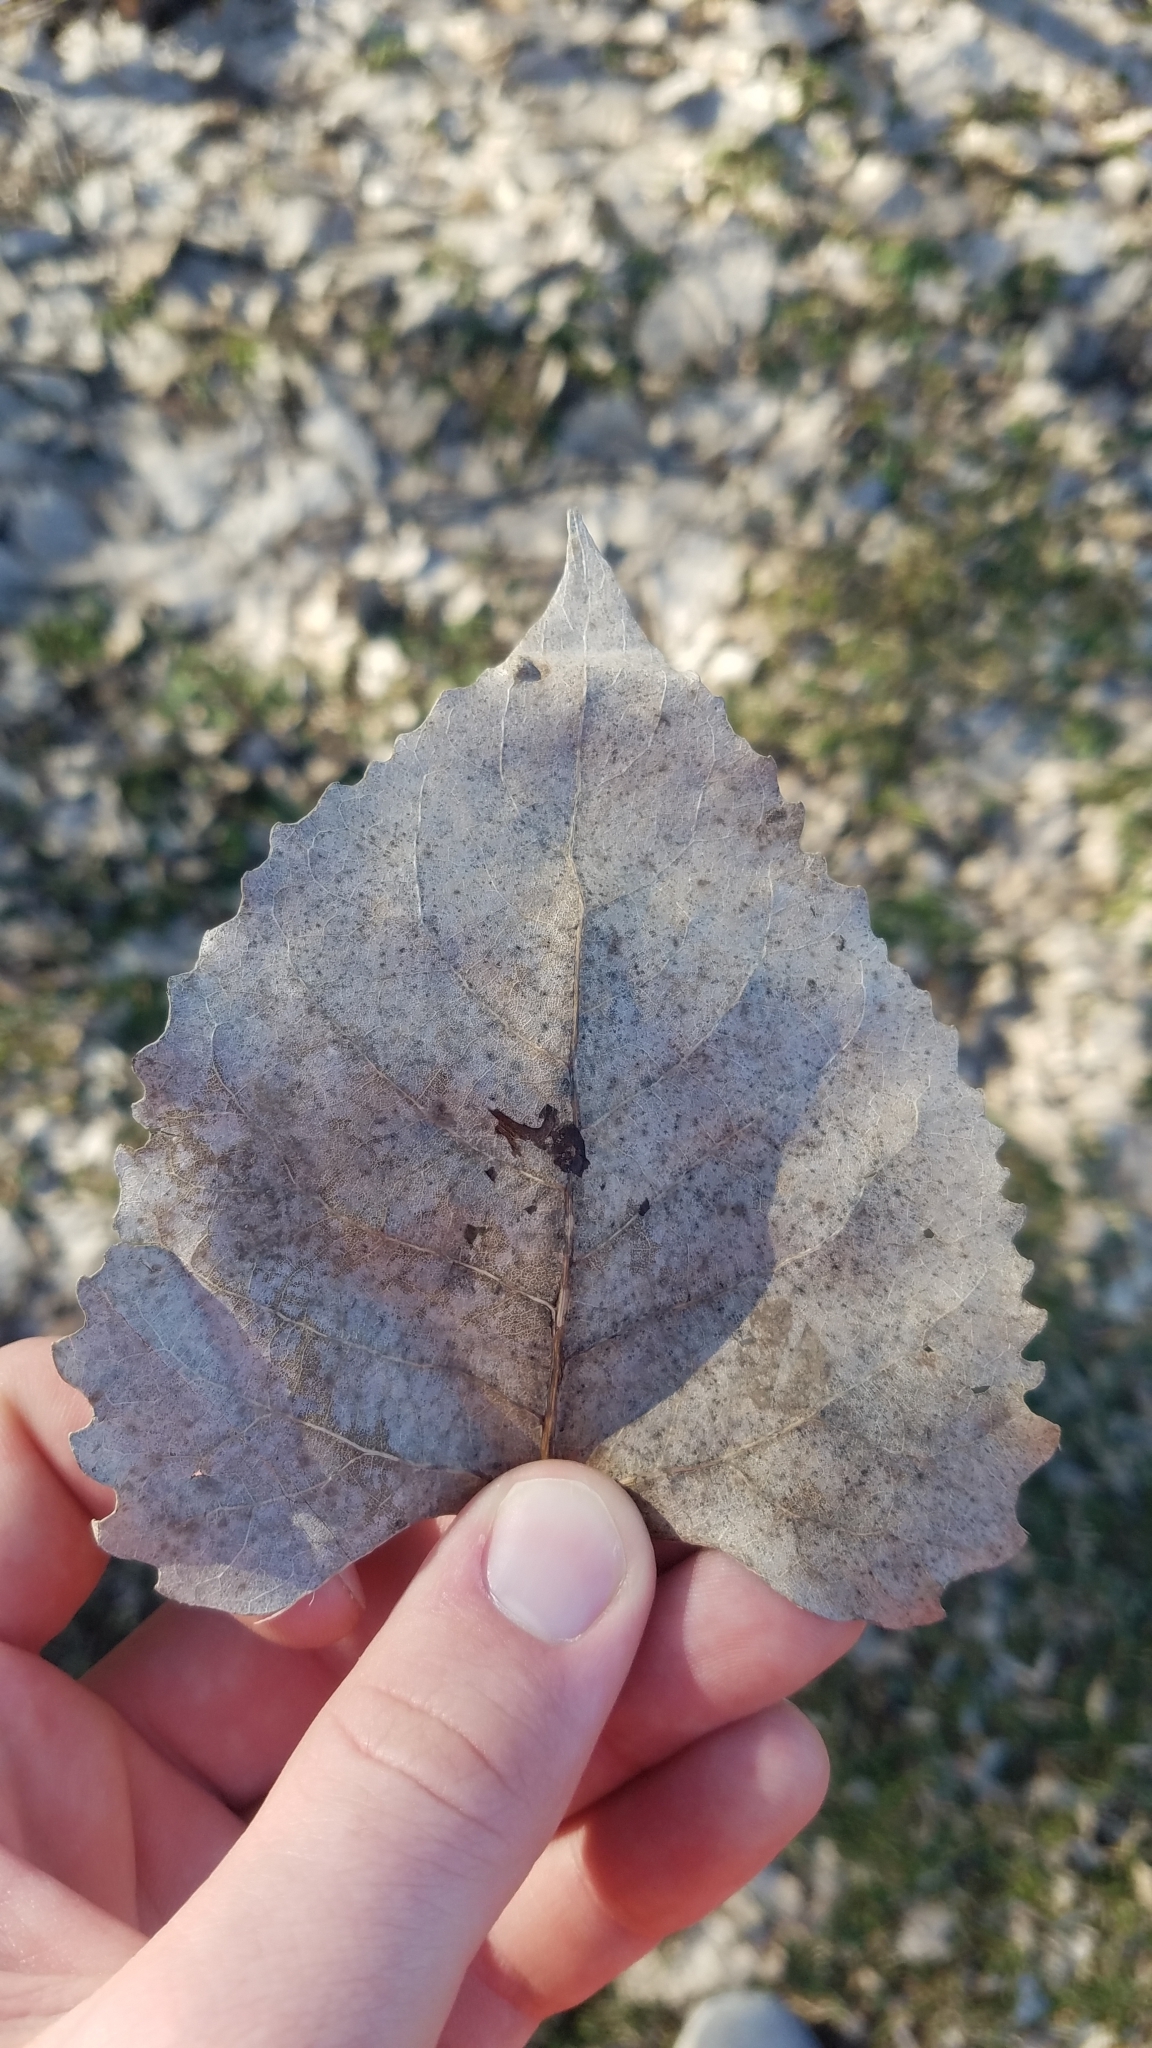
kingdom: Plantae
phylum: Tracheophyta
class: Magnoliopsida
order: Malpighiales
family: Salicaceae
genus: Populus
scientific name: Populus deltoides
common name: Eastern cottonwood
